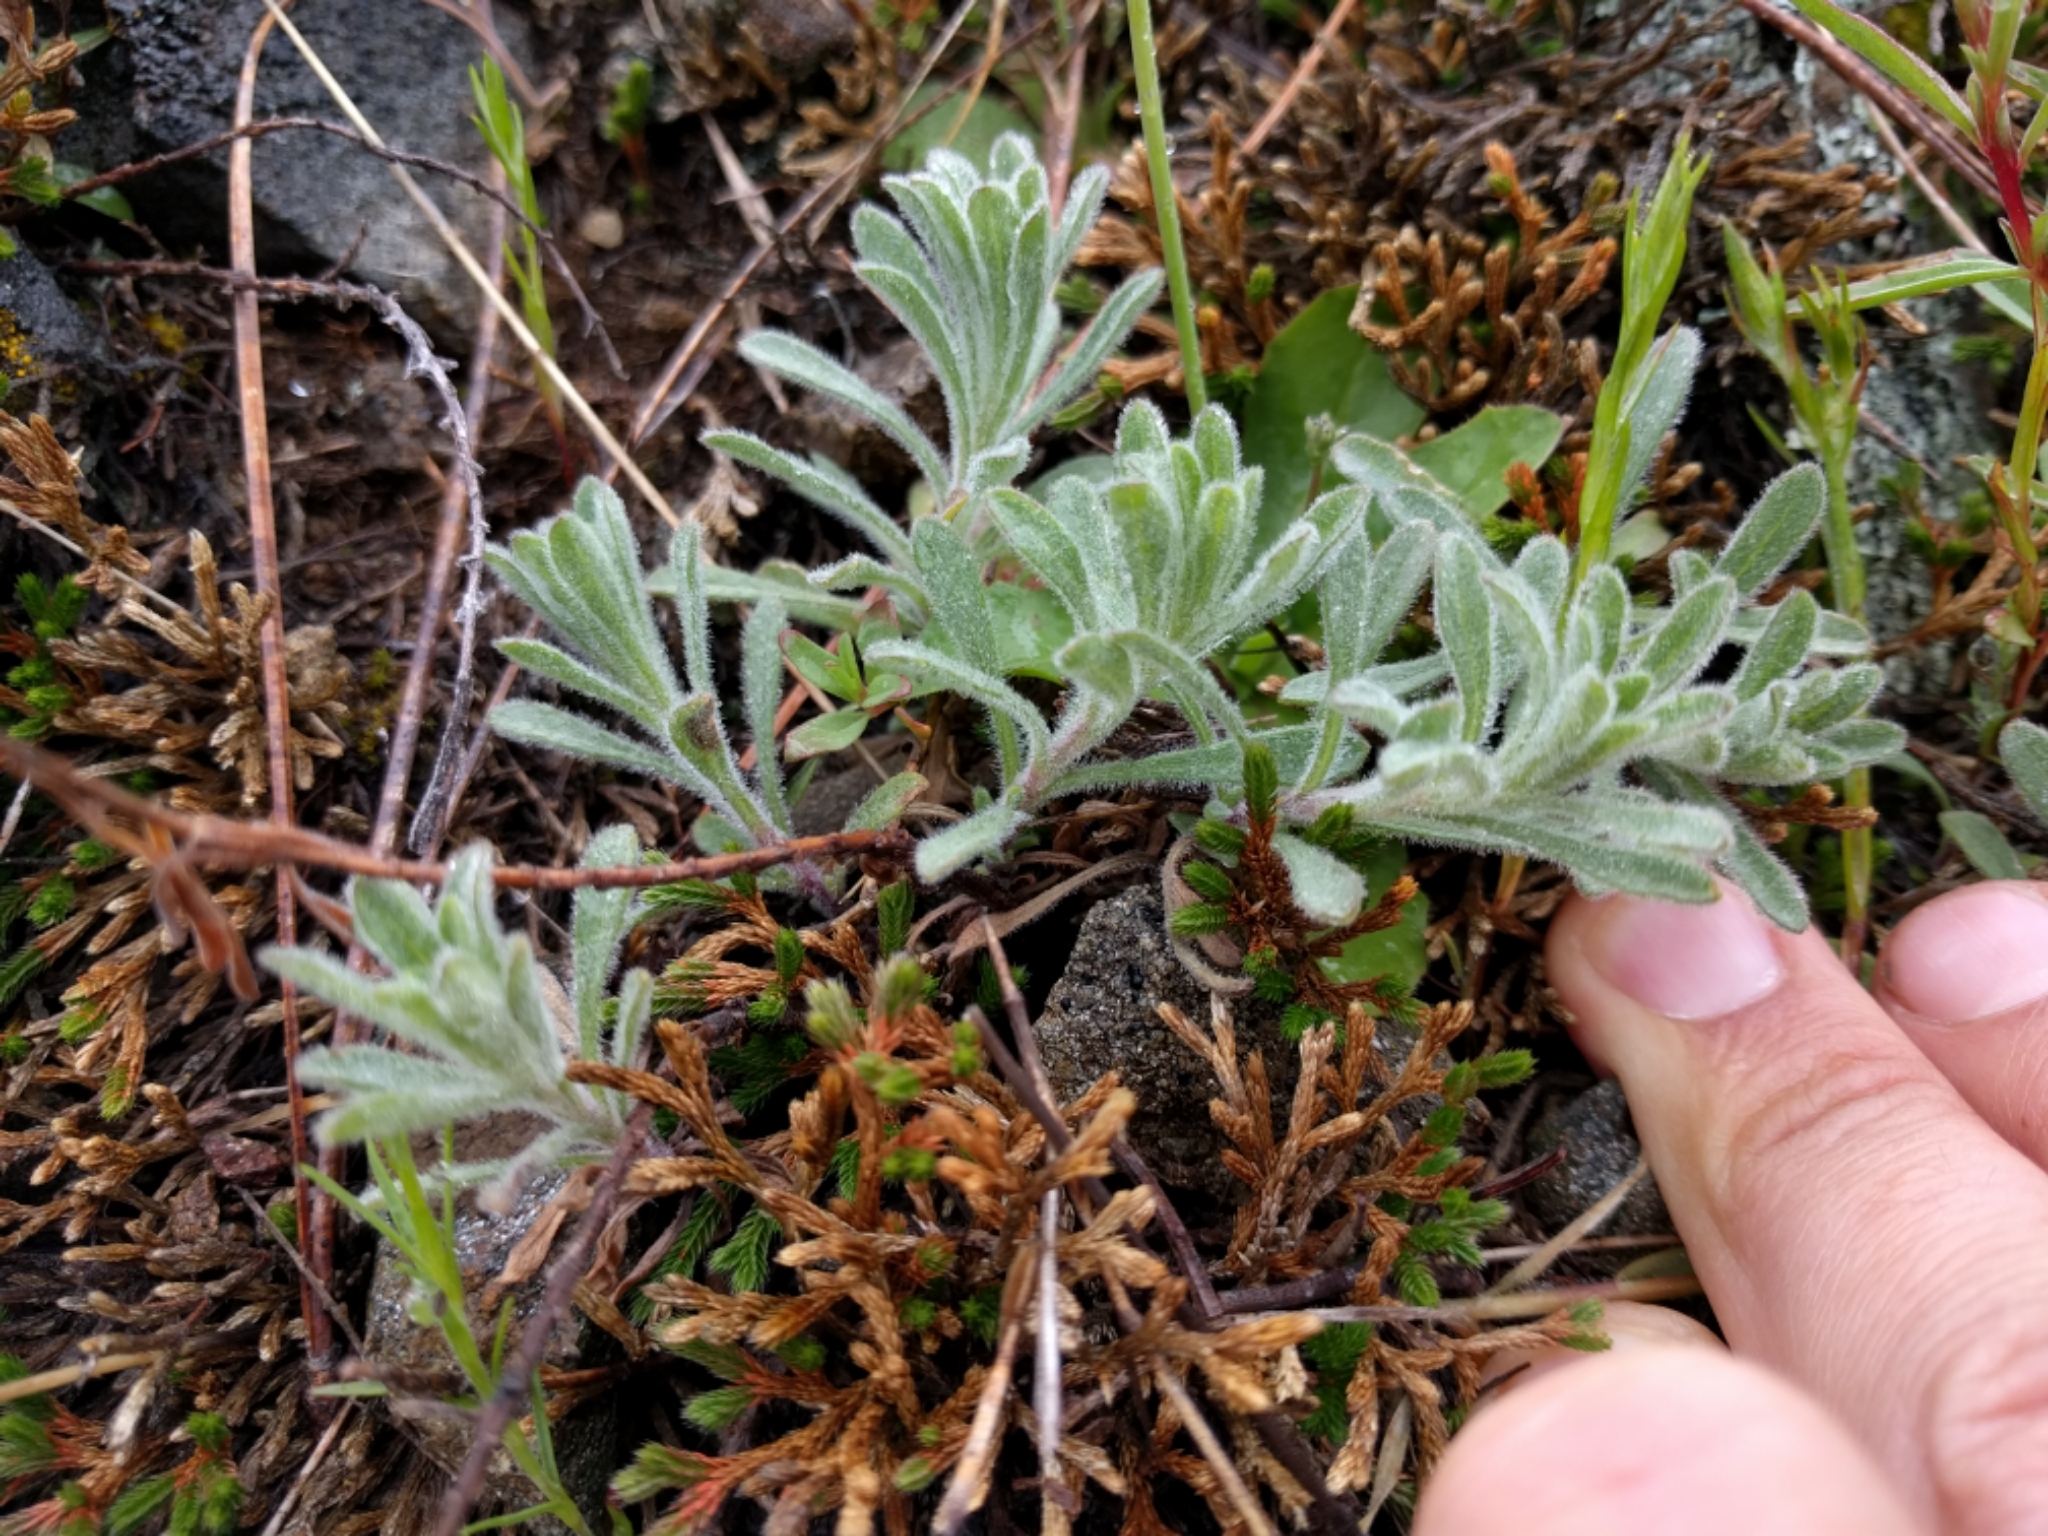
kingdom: Plantae
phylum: Tracheophyta
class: Magnoliopsida
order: Asterales
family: Asteraceae
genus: Erigeron
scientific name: Erigeron petrophilus
